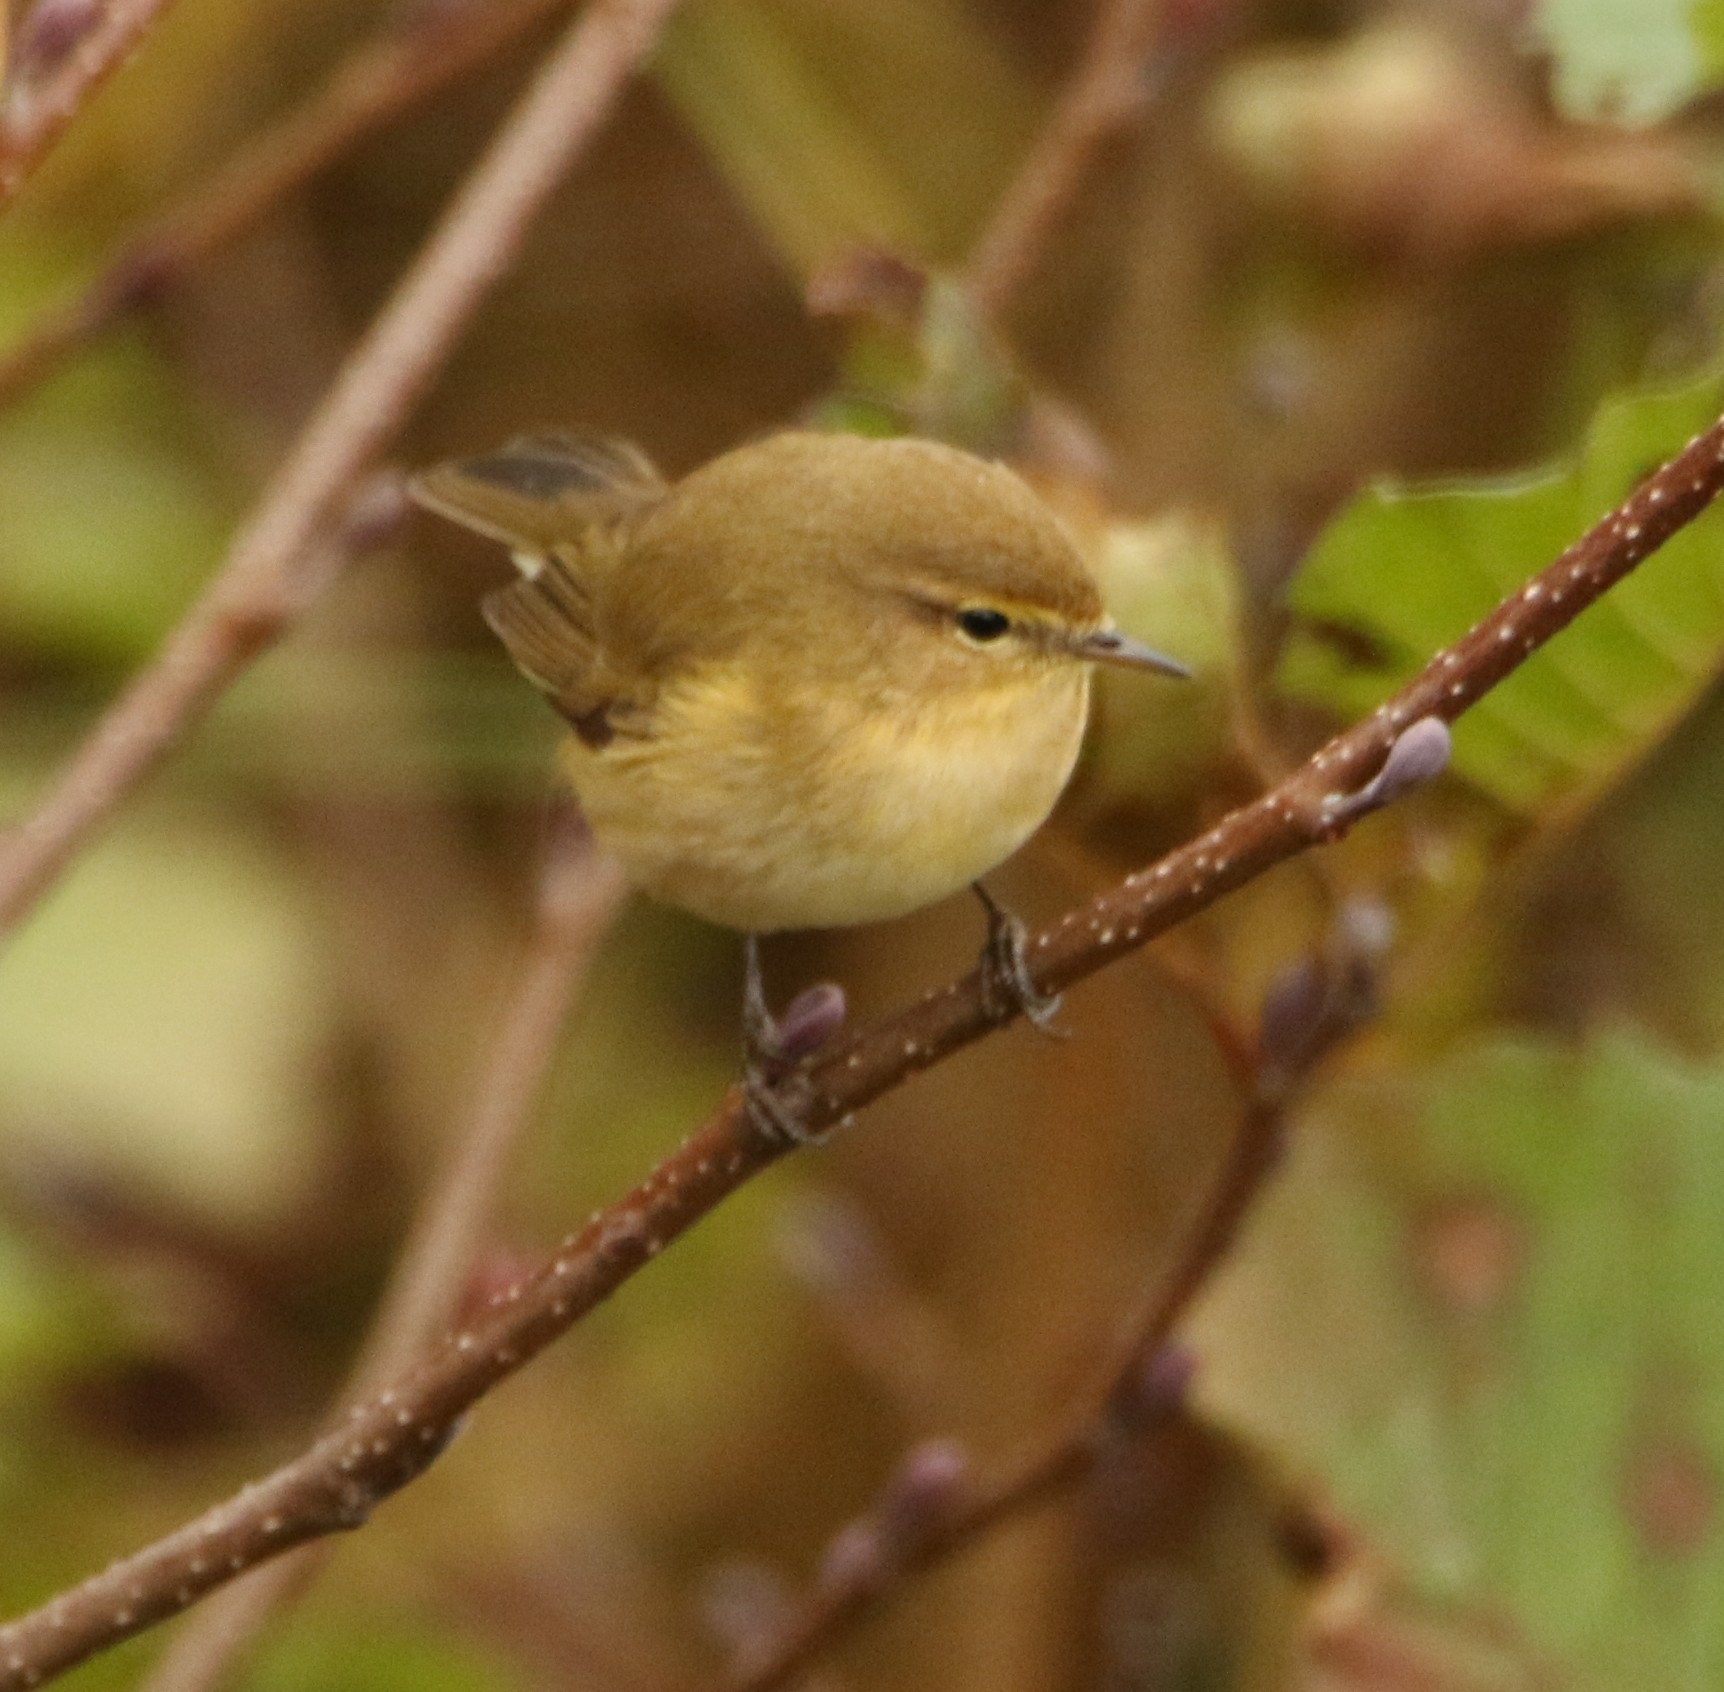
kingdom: Animalia
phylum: Chordata
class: Aves
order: Passeriformes
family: Phylloscopidae
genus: Phylloscopus
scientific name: Phylloscopus collybita
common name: Common chiffchaff
